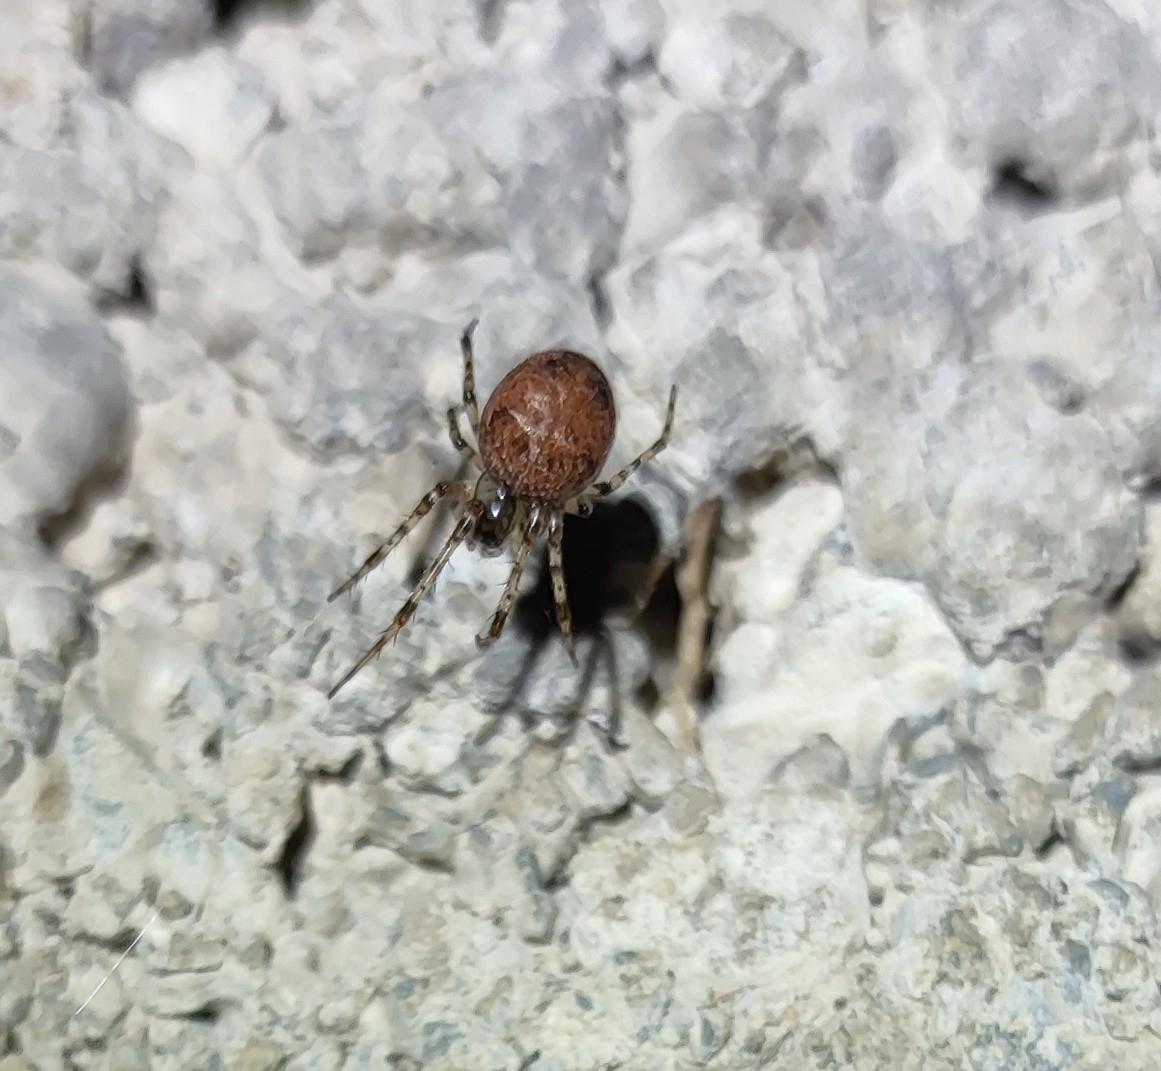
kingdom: Animalia
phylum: Arthropoda
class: Arachnida
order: Araneae
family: Tetragnathidae
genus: Metellina
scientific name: Metellina merianae
